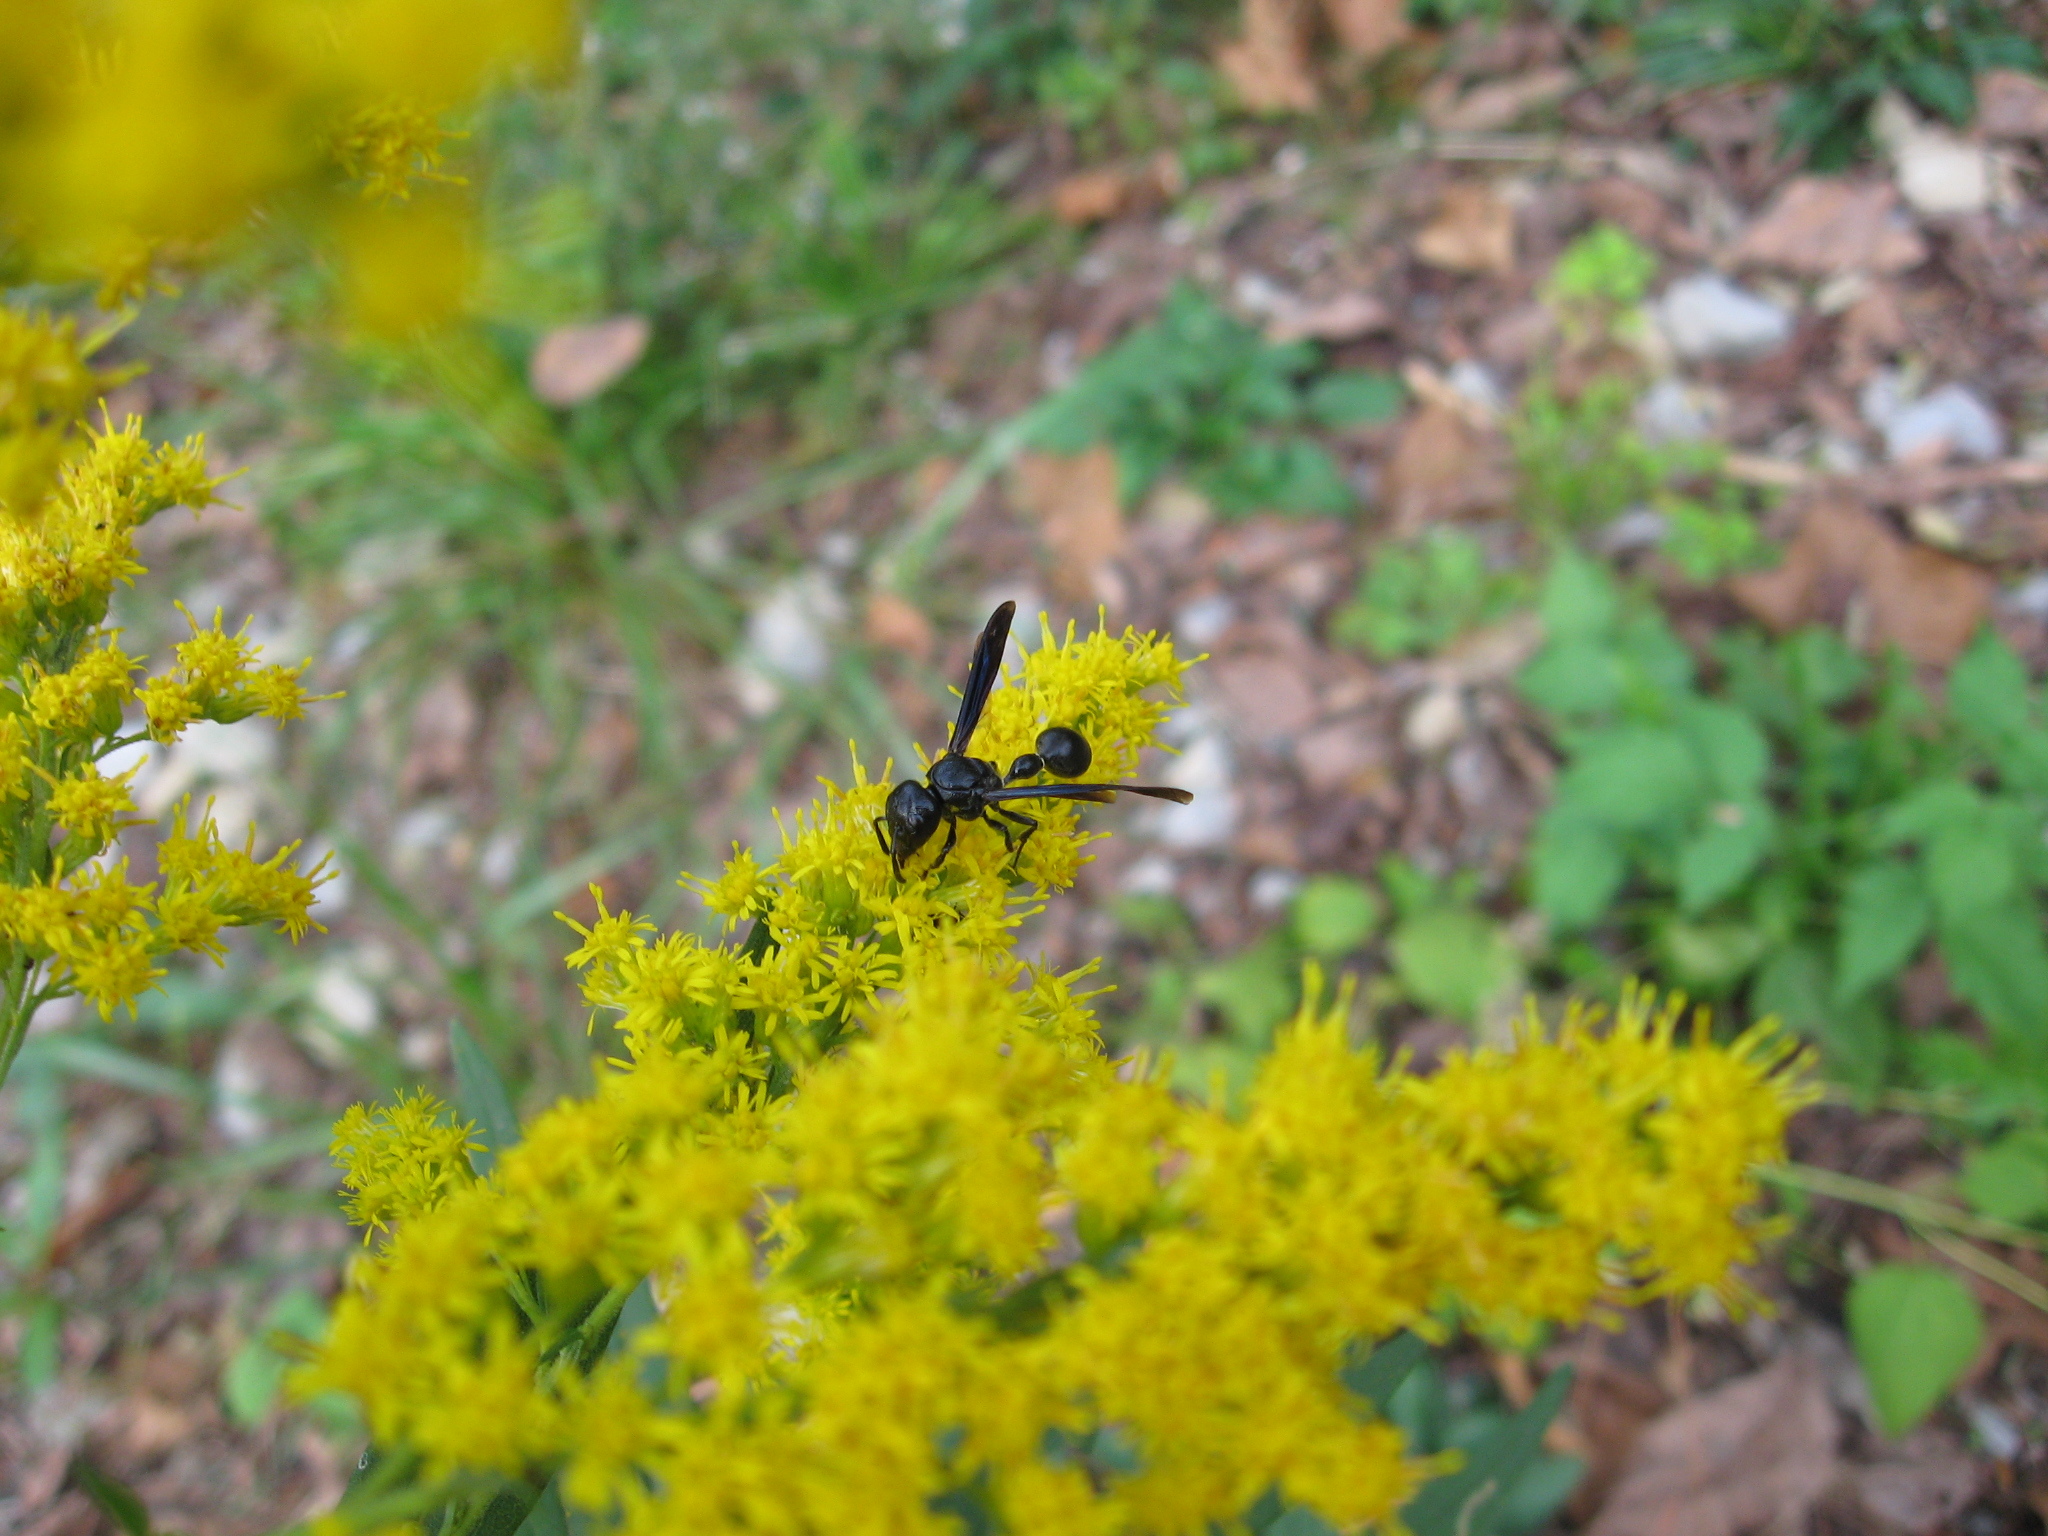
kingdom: Animalia
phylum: Arthropoda
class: Insecta
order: Hymenoptera
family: Eumenidae
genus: Zethus
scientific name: Zethus spinipes
